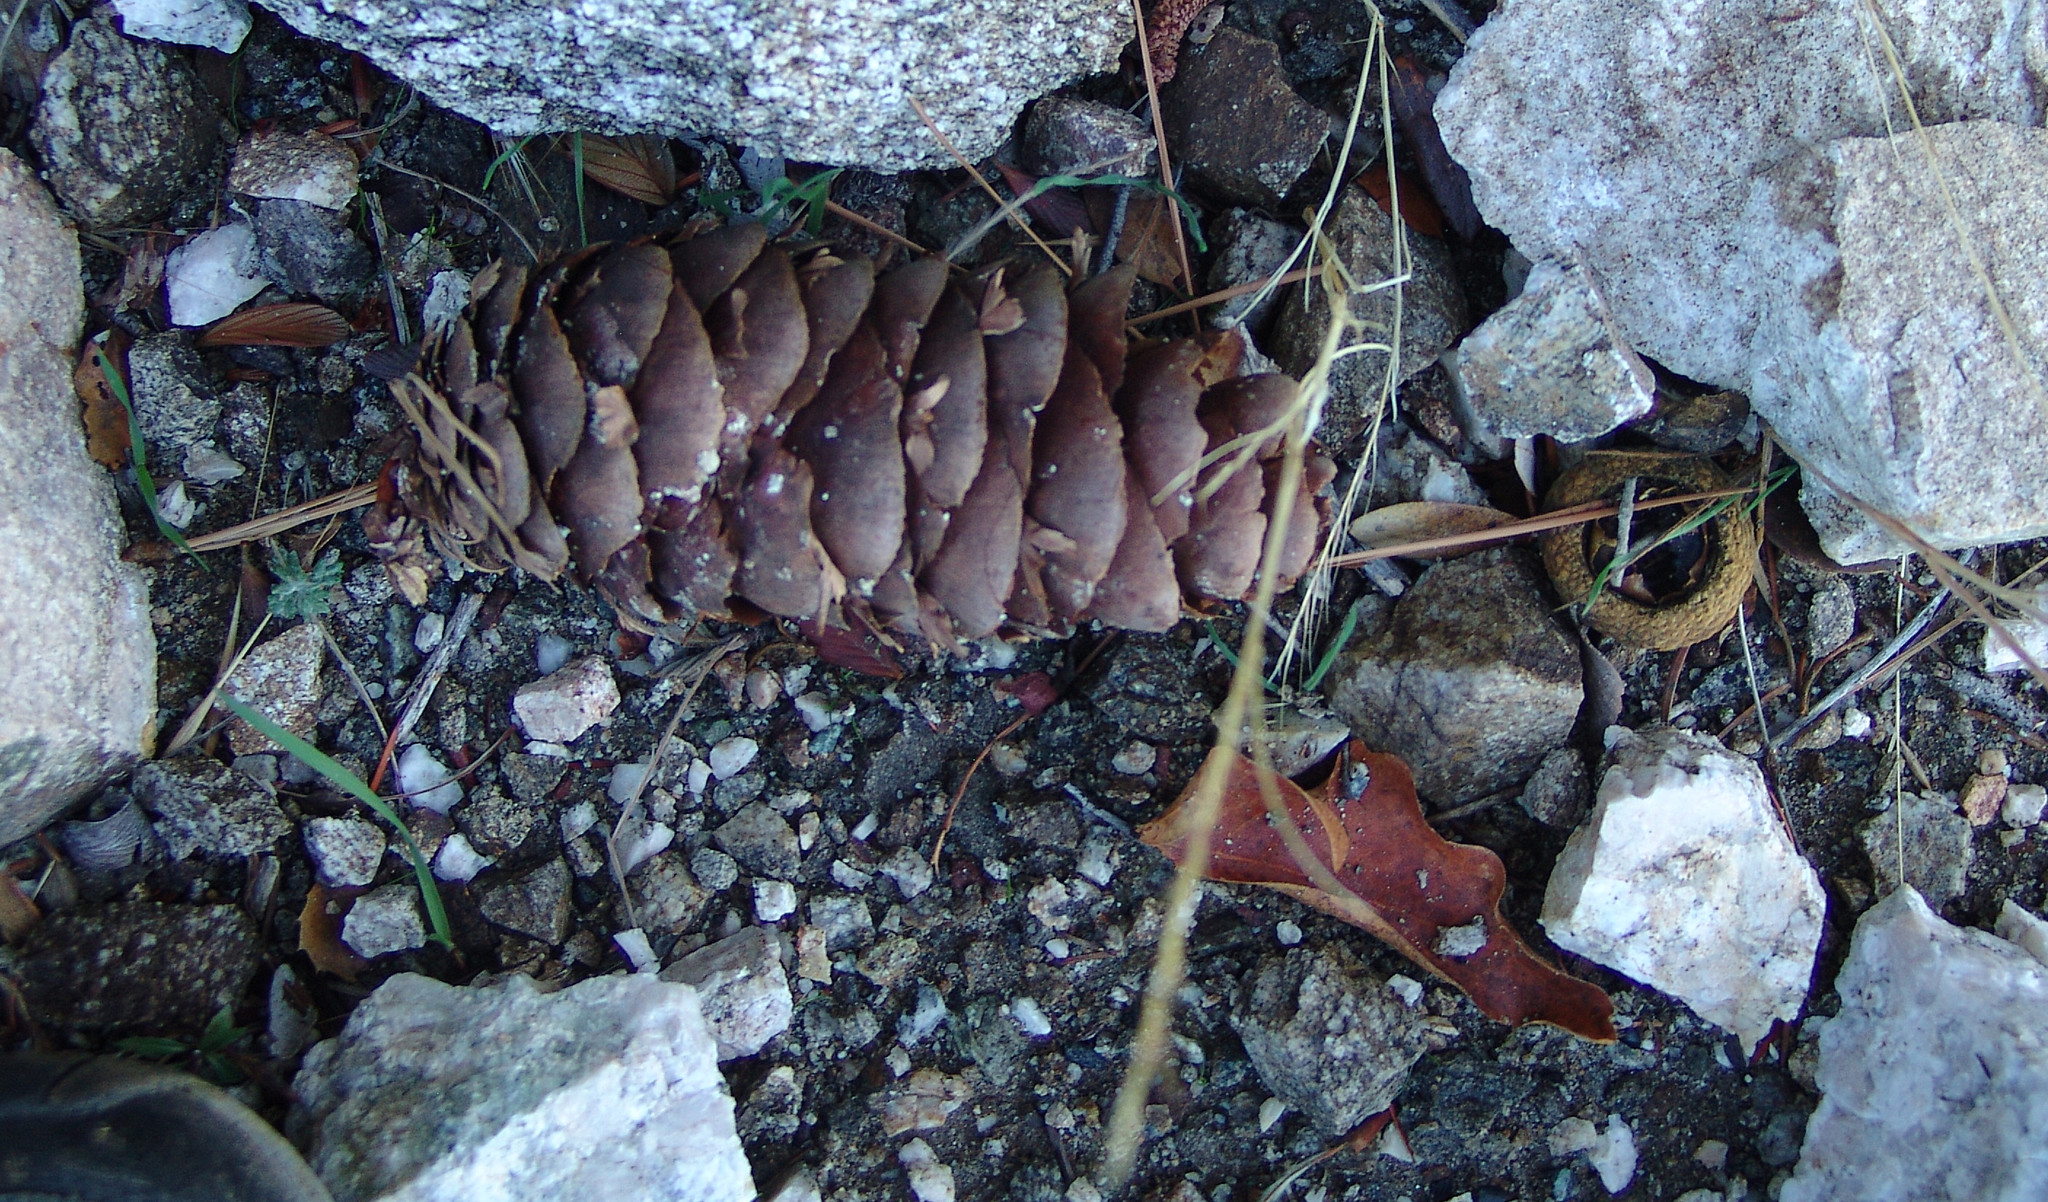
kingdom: Plantae
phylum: Tracheophyta
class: Pinopsida
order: Pinales
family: Pinaceae
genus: Pseudotsuga
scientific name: Pseudotsuga macrocarpa
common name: Big-cone douglas-fir
